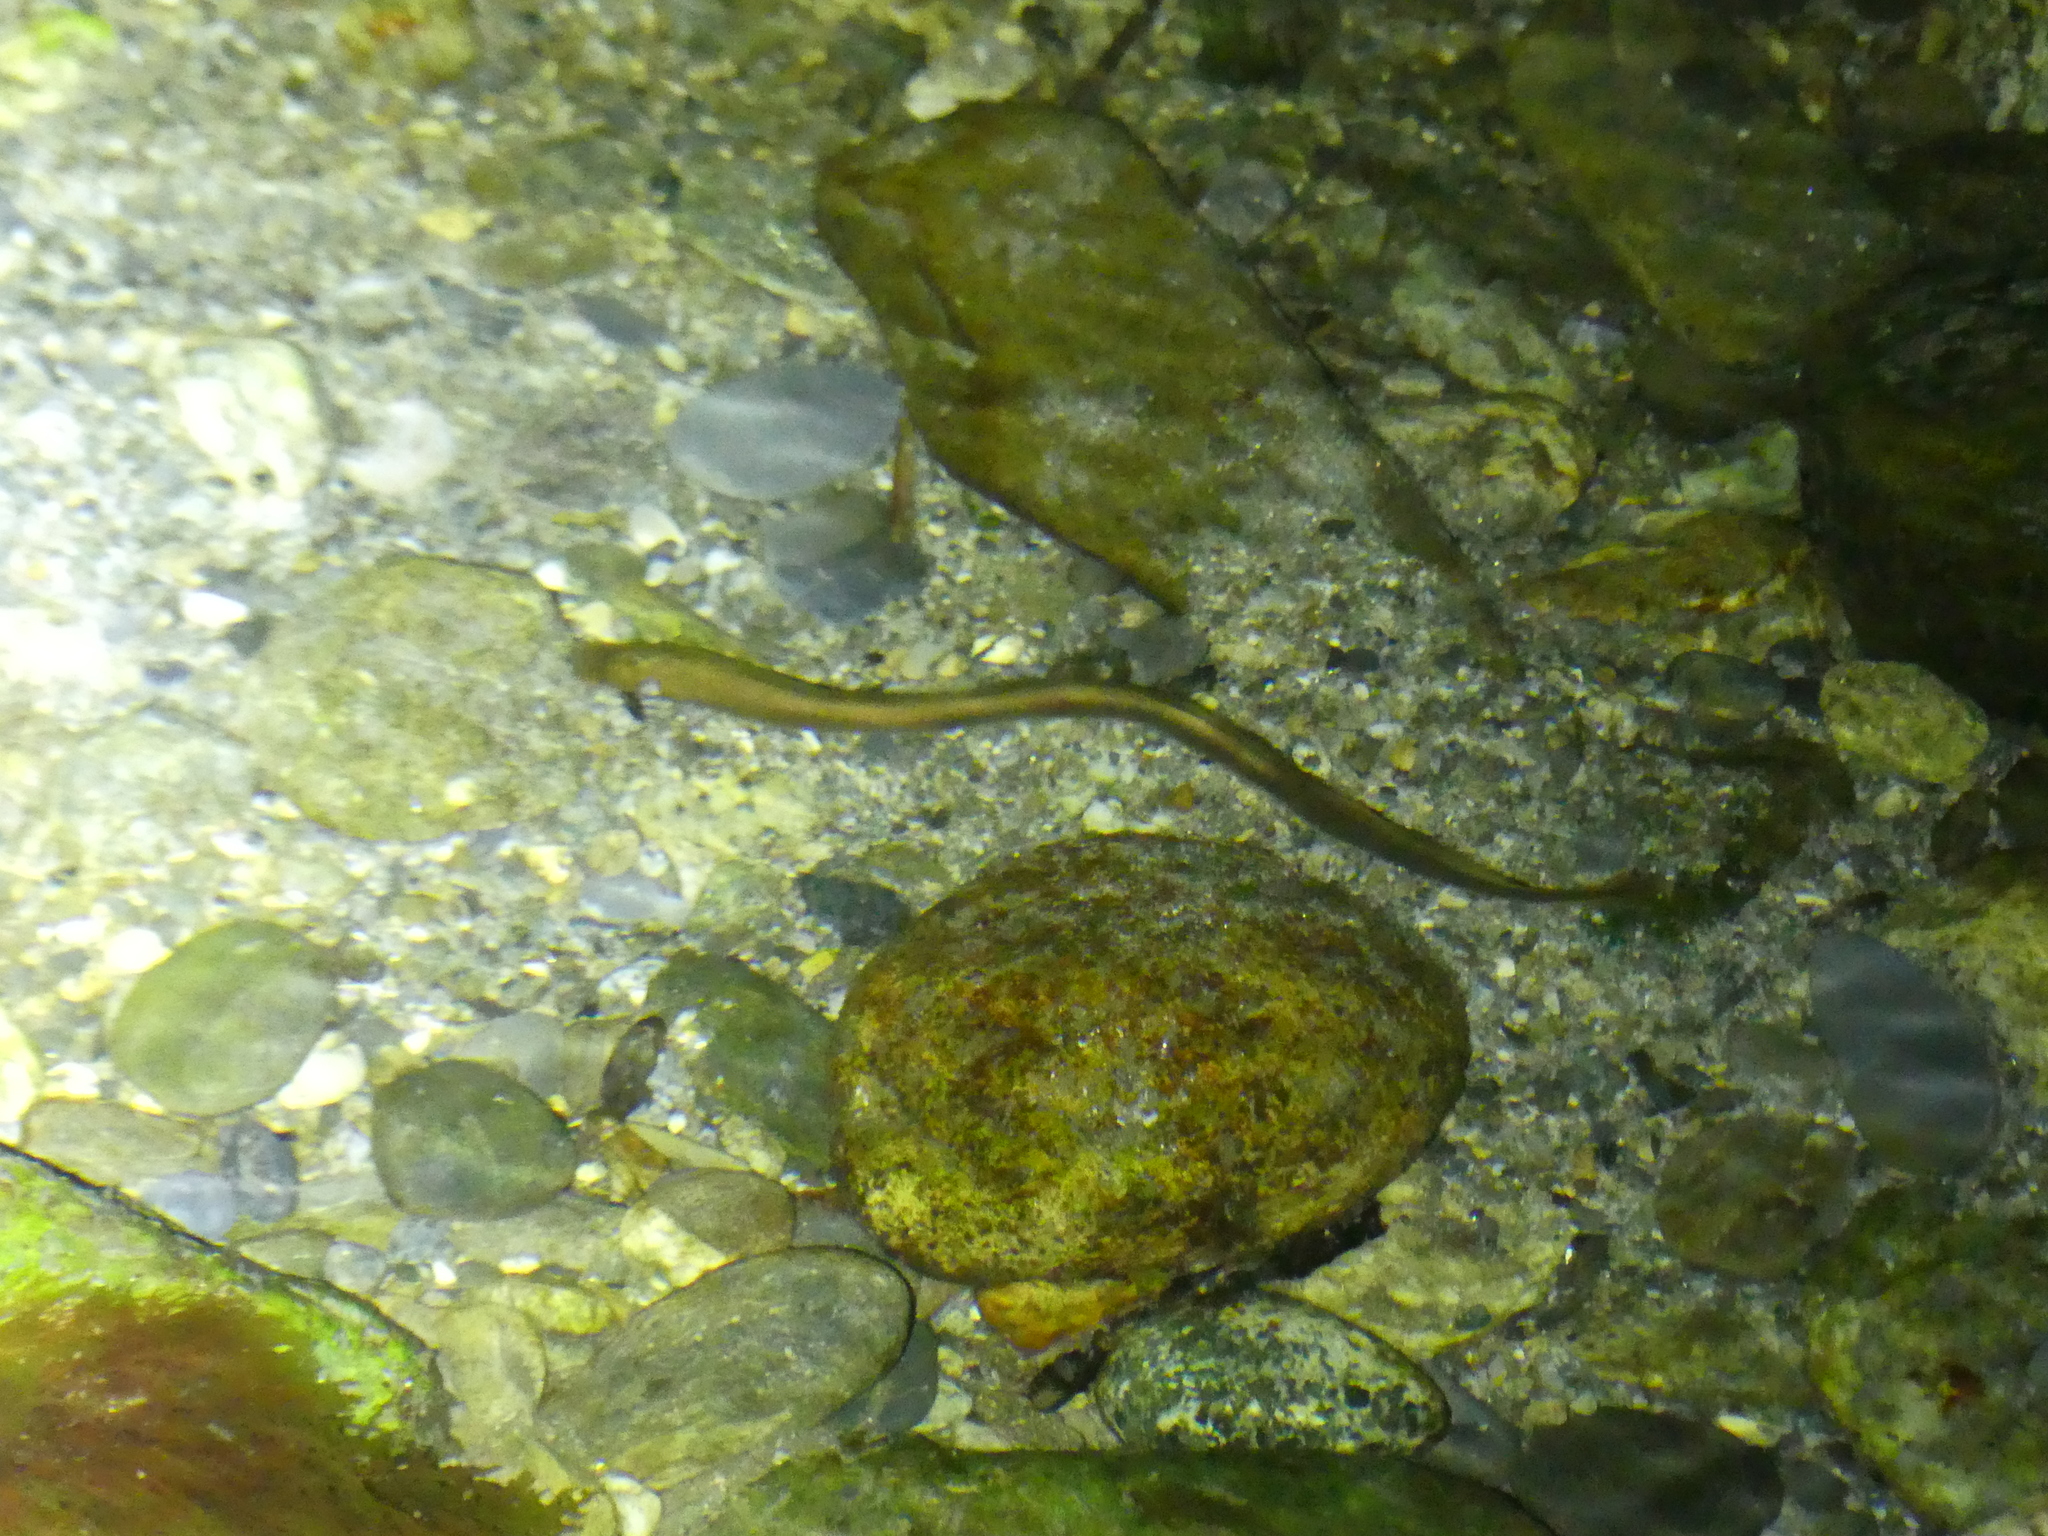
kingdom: Animalia
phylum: Chordata
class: Petromyzonti
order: Petromyzontiformes
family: Petromyzontidae
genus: Lampetra
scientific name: Lampetra planeri
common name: Brook lamprey
